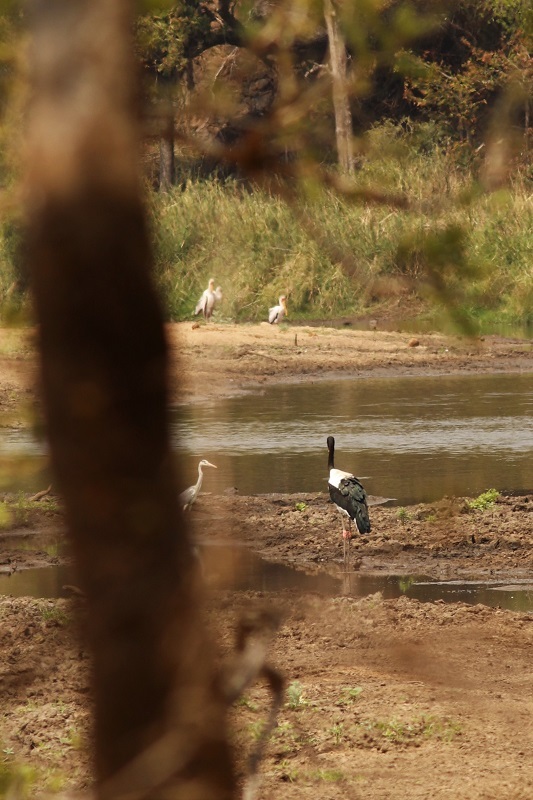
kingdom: Animalia
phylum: Chordata
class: Aves
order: Ciconiiformes
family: Ciconiidae
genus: Ephippiorhynchus
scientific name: Ephippiorhynchus senegalensis
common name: Saddle-billed stork
